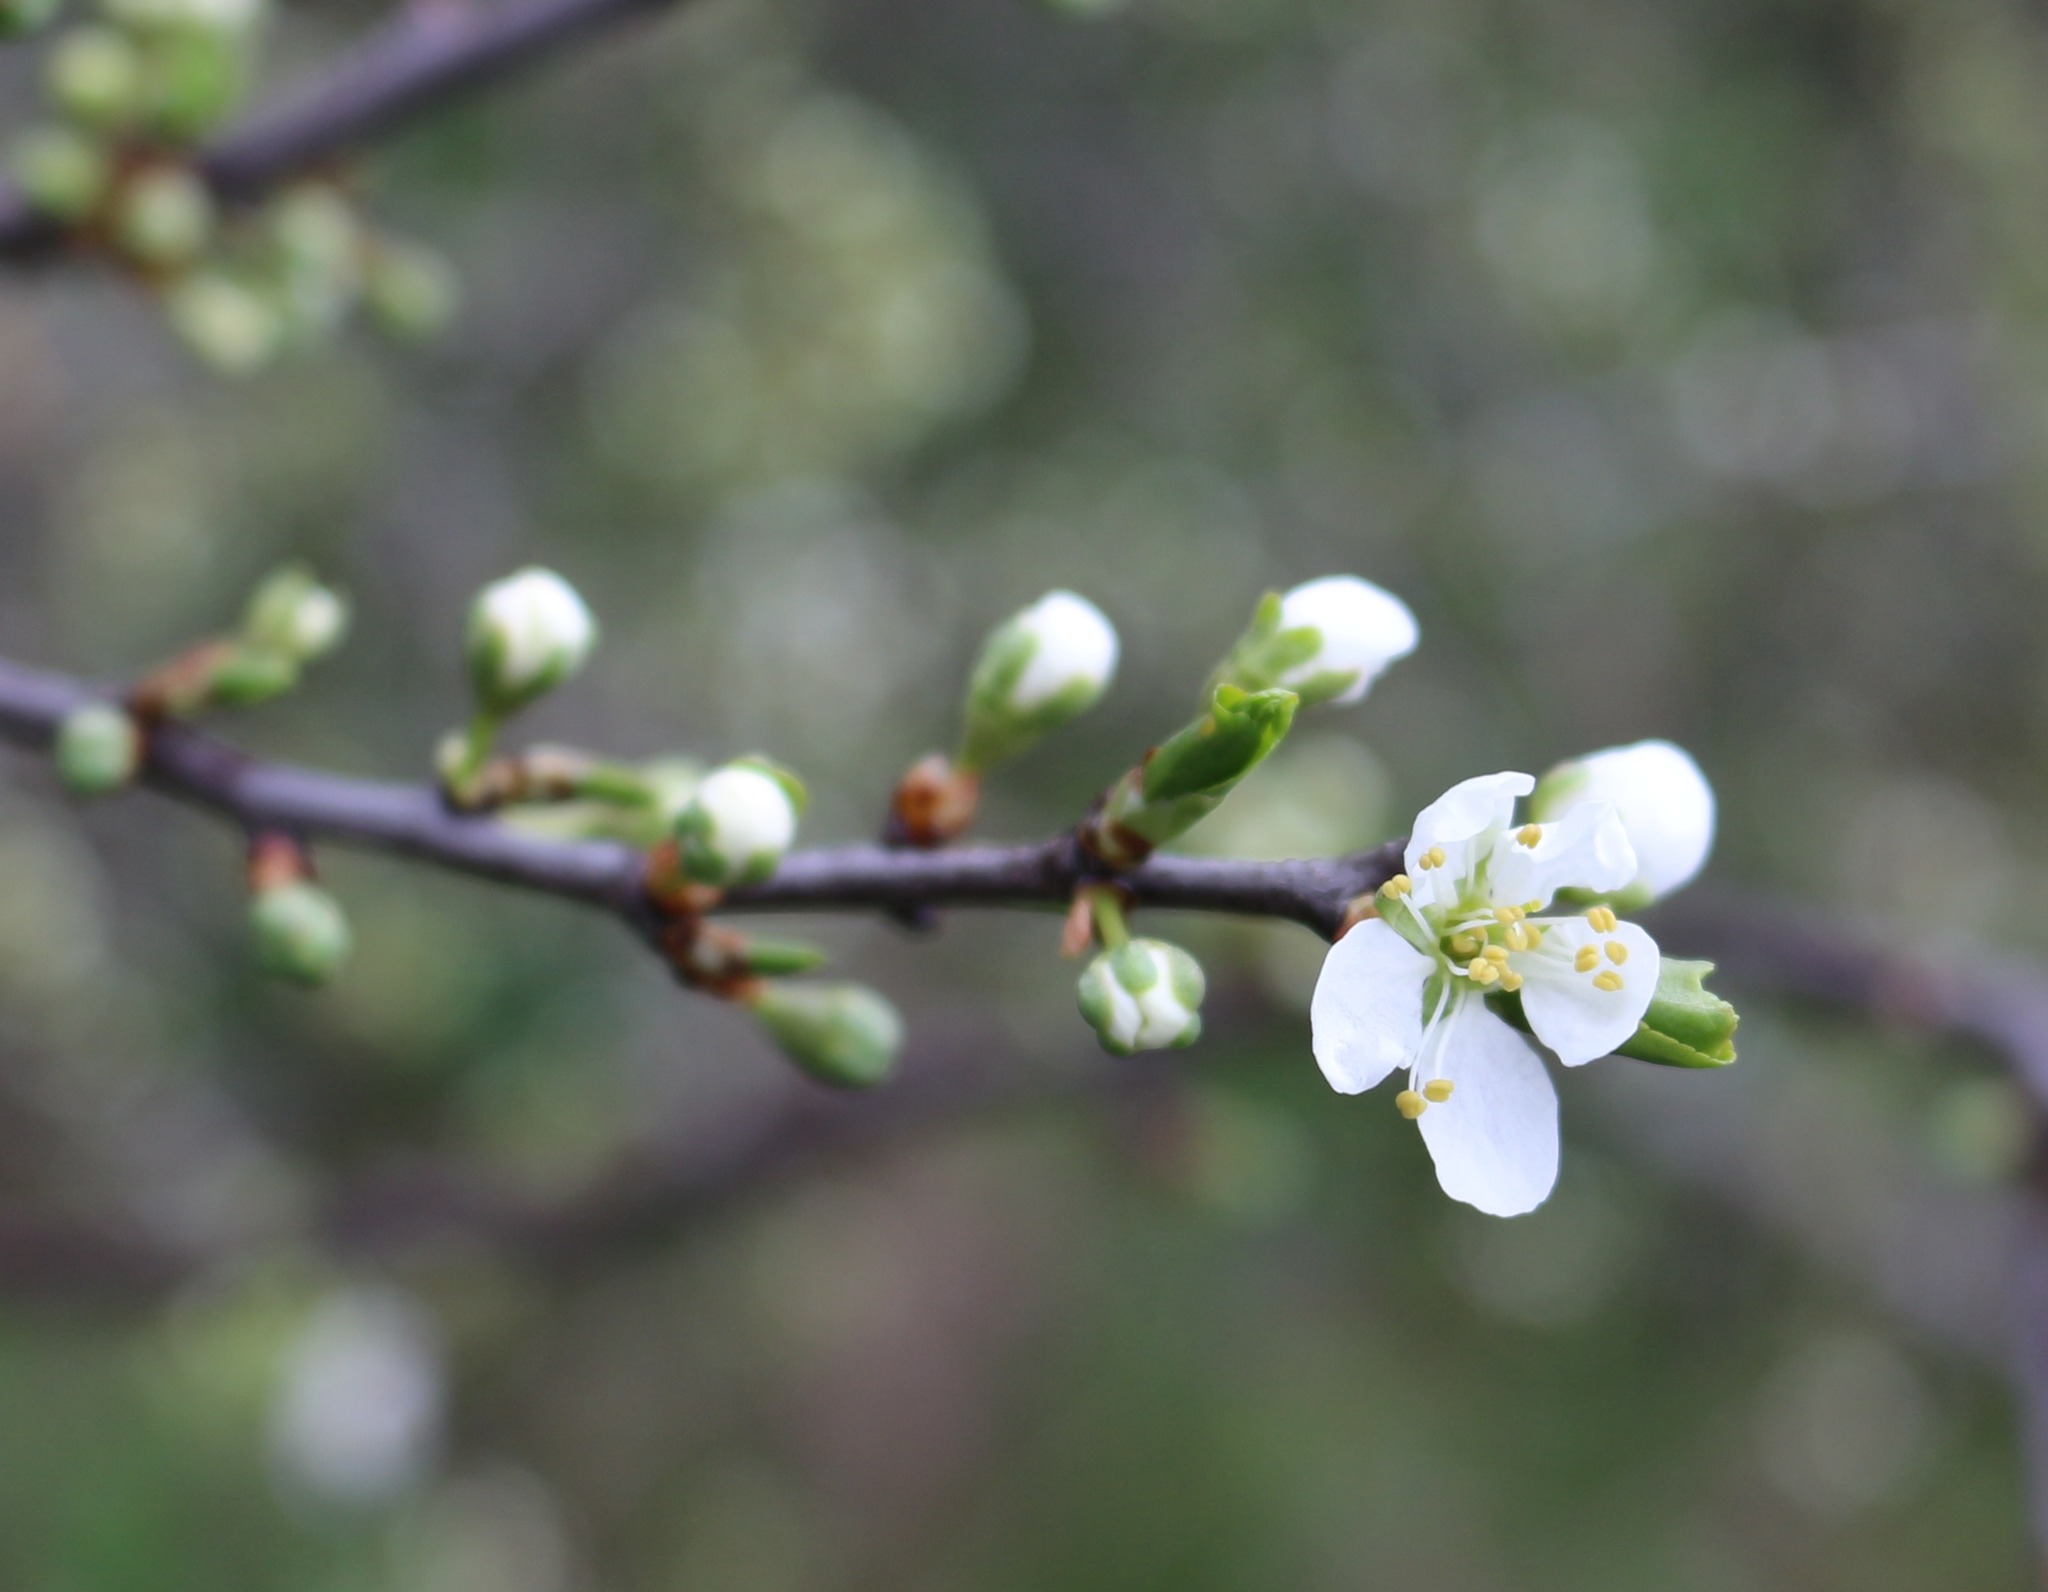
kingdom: Plantae
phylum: Tracheophyta
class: Magnoliopsida
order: Rosales
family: Rosaceae
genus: Prunus
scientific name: Prunus spinosa
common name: Blackthorn
